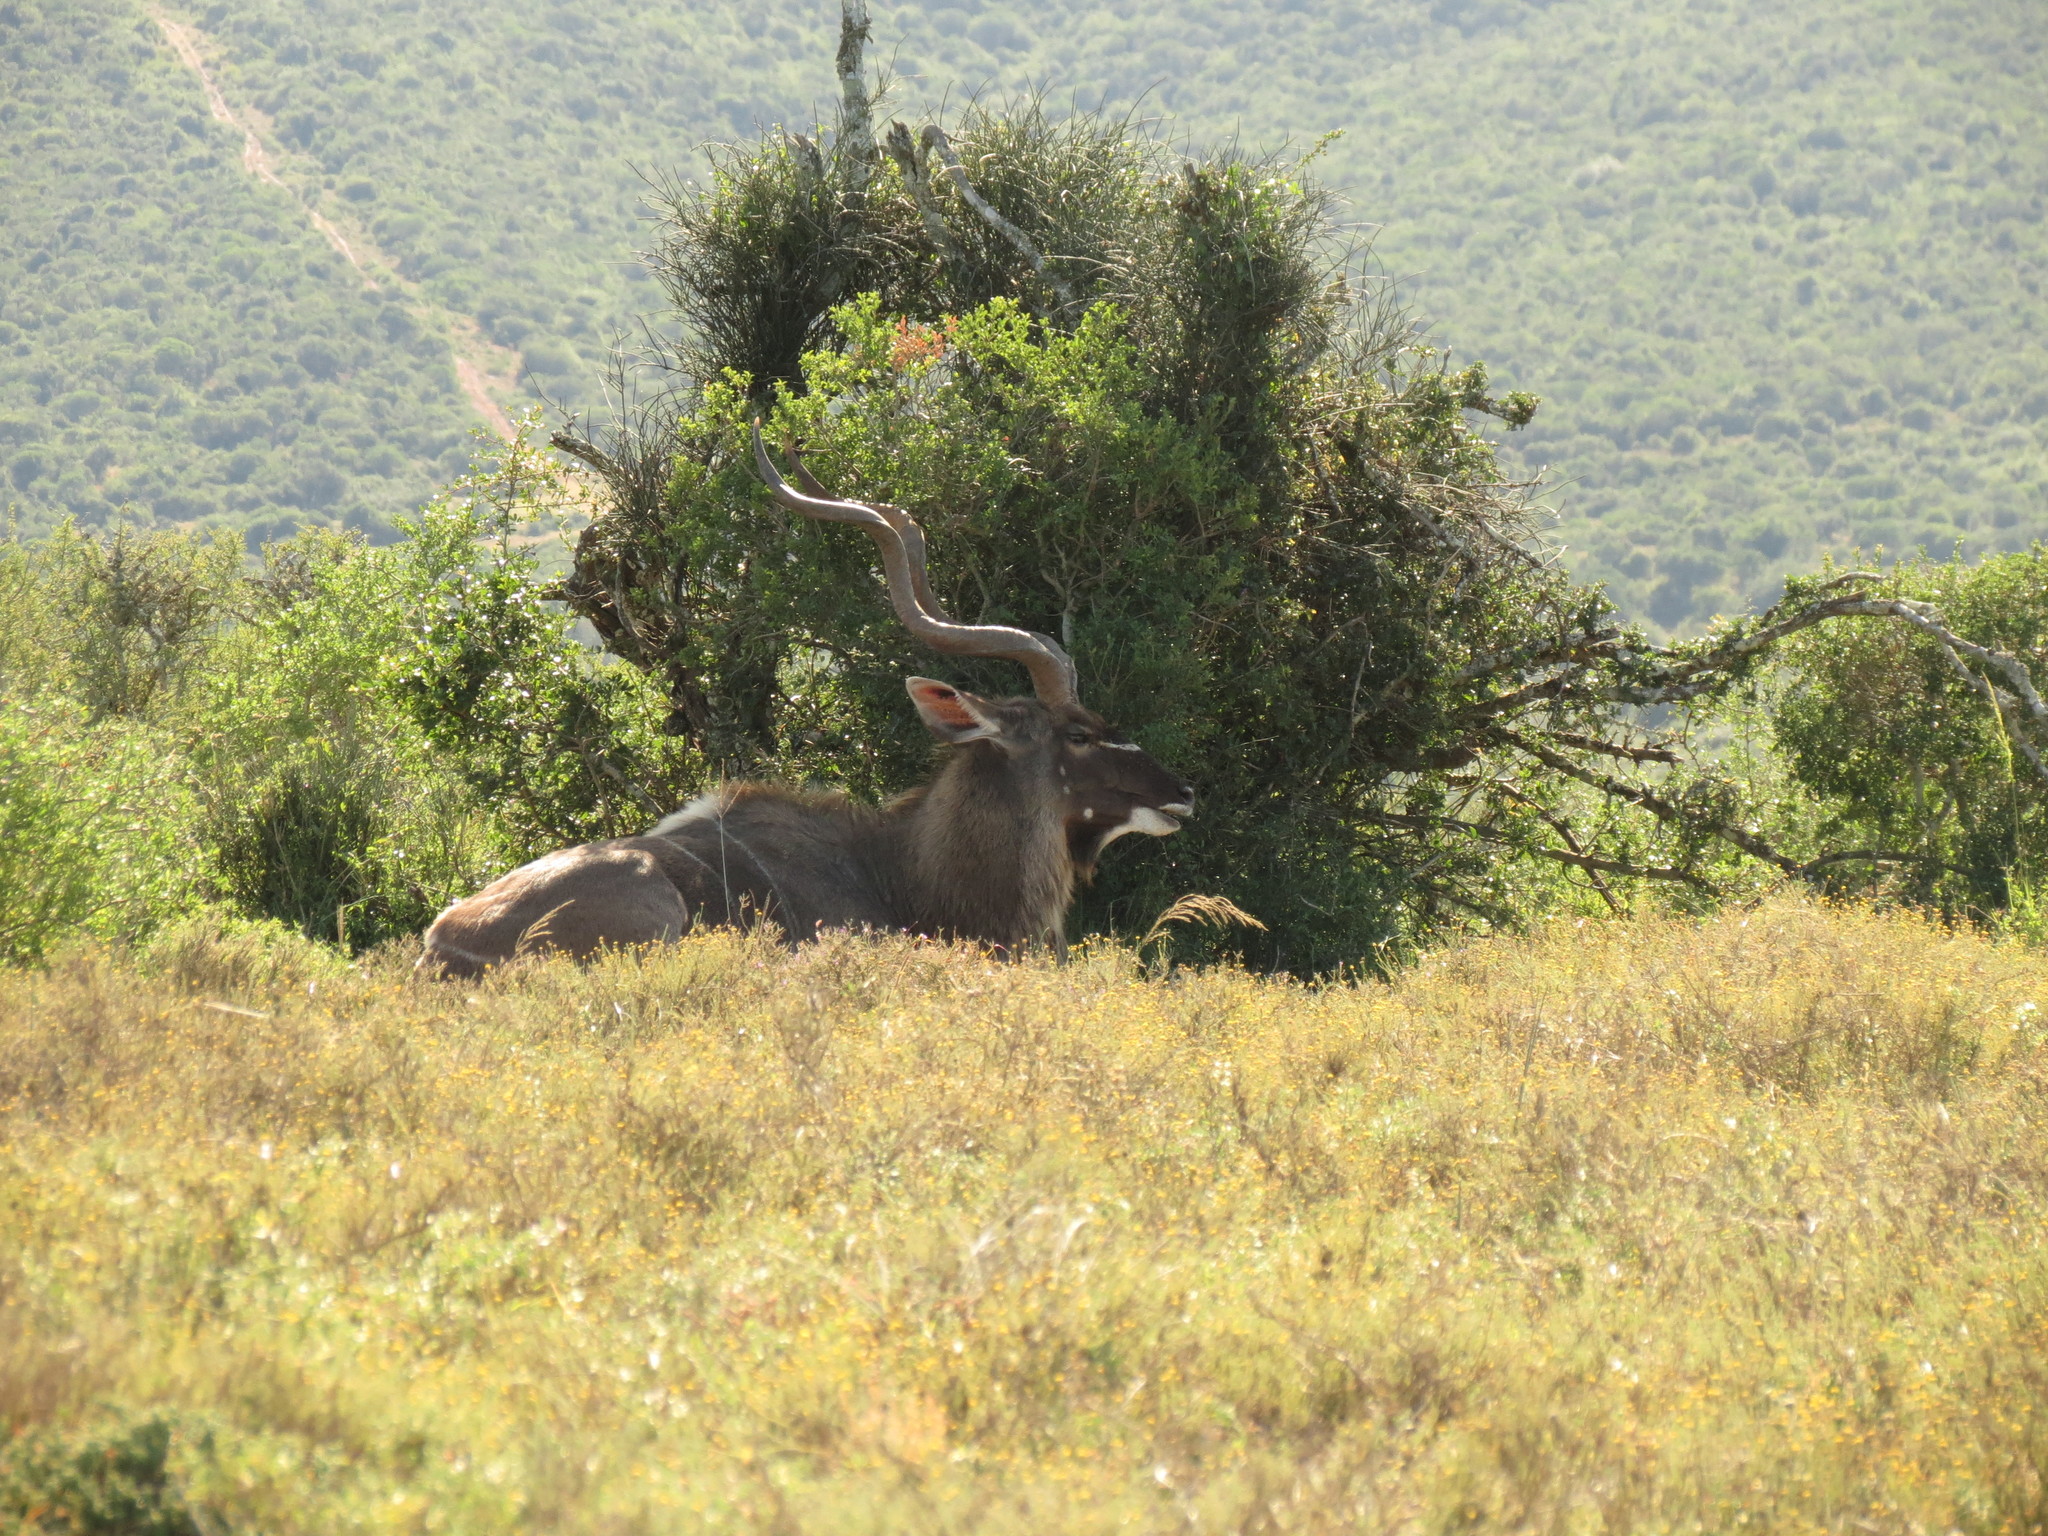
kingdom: Animalia
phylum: Chordata
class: Mammalia
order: Artiodactyla
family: Bovidae
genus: Tragelaphus
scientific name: Tragelaphus strepsiceros
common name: Greater kudu
